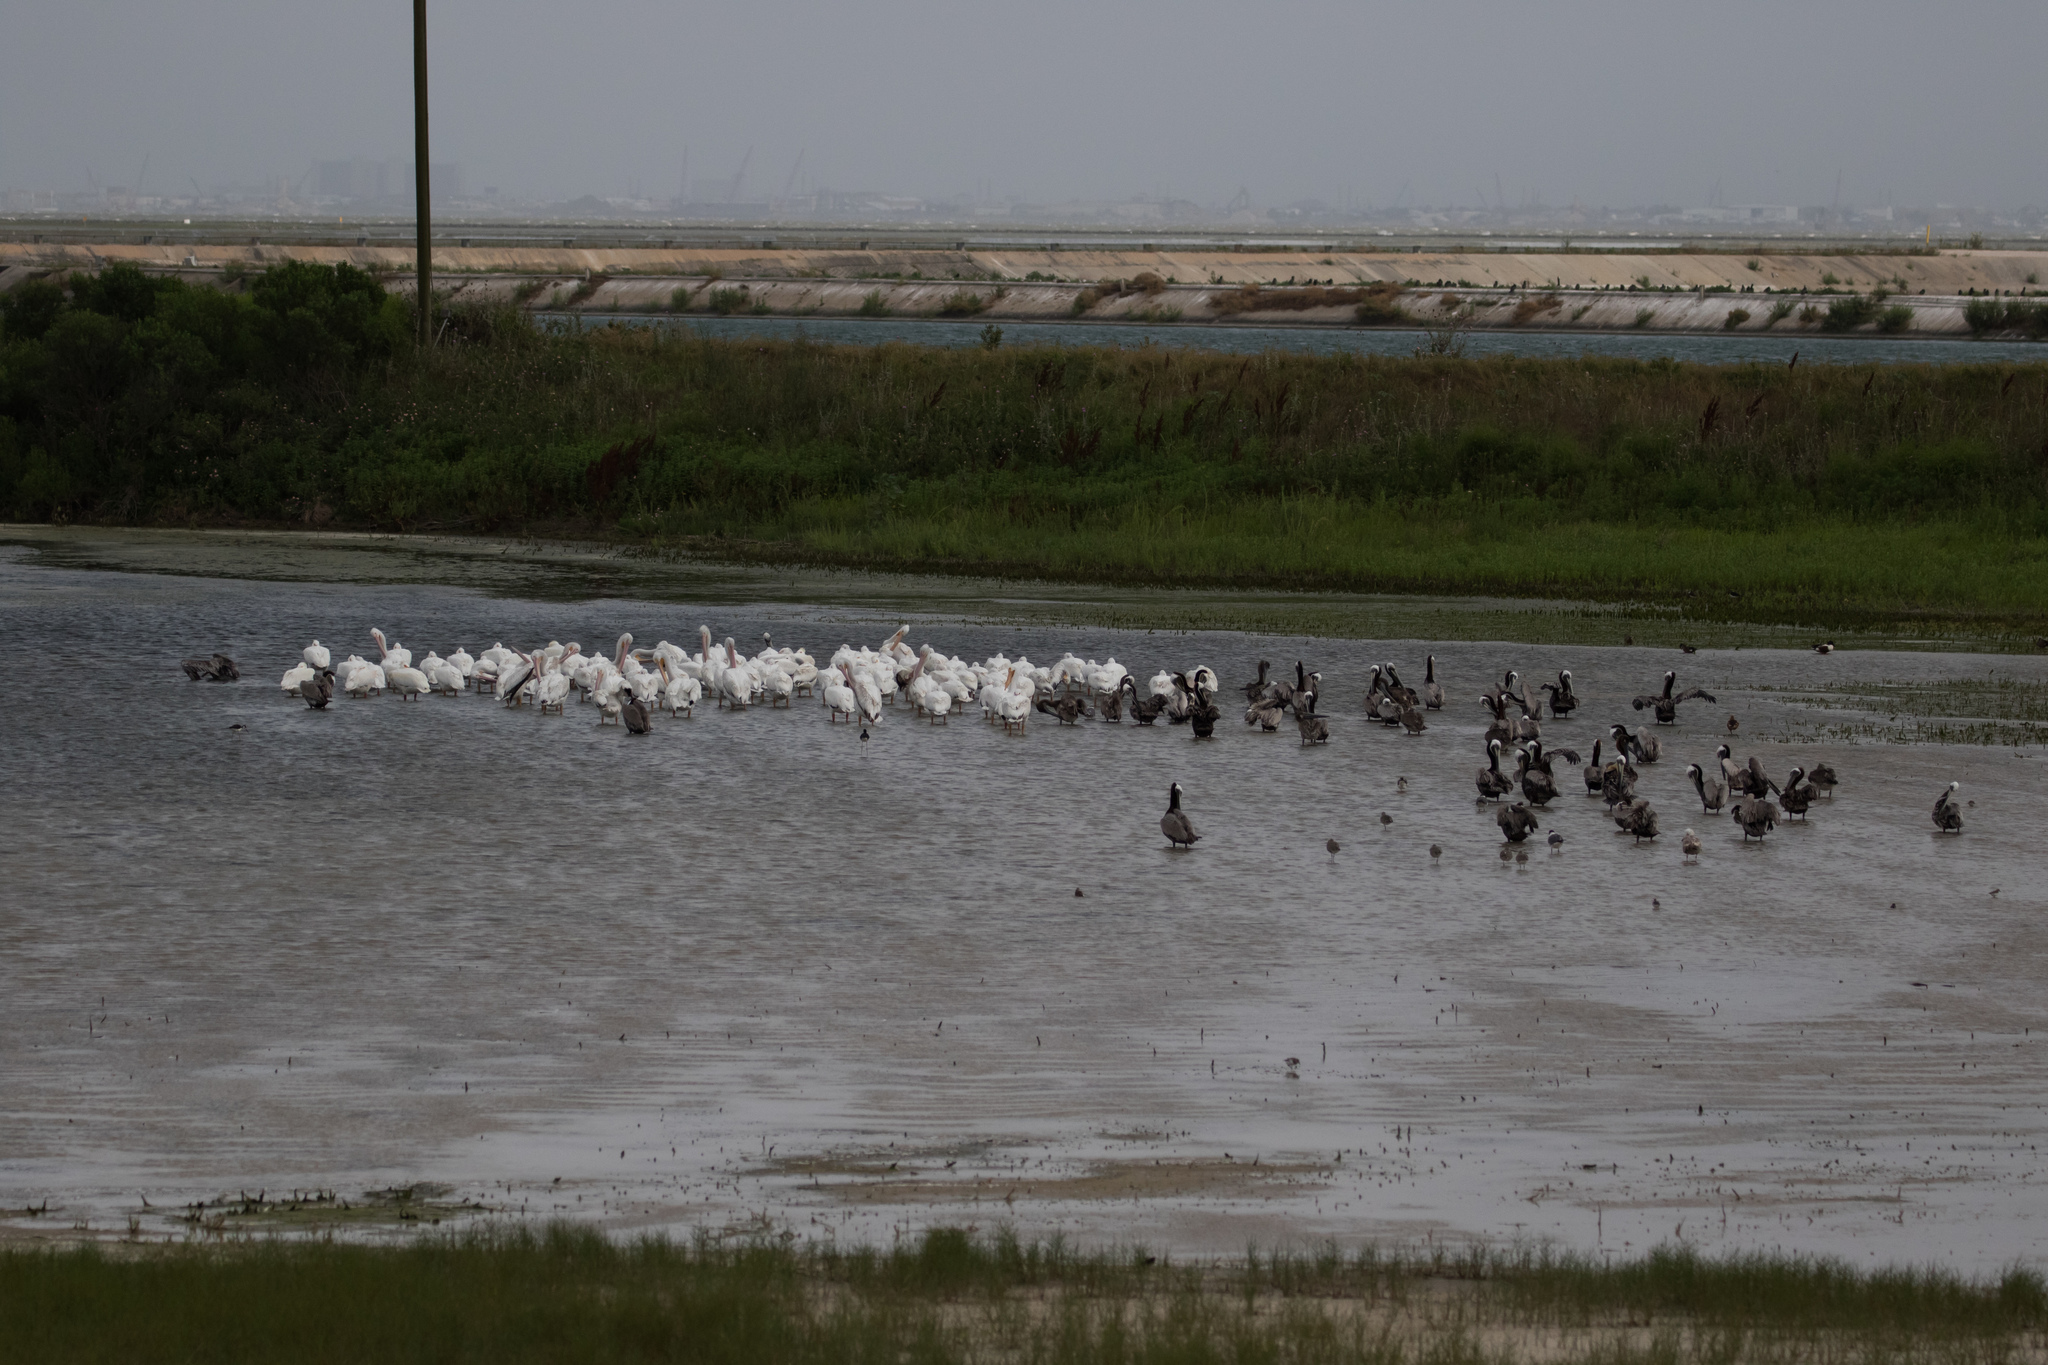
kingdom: Animalia
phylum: Chordata
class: Aves
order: Pelecaniformes
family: Pelecanidae
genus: Pelecanus
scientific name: Pelecanus erythrorhynchos
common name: American white pelican
